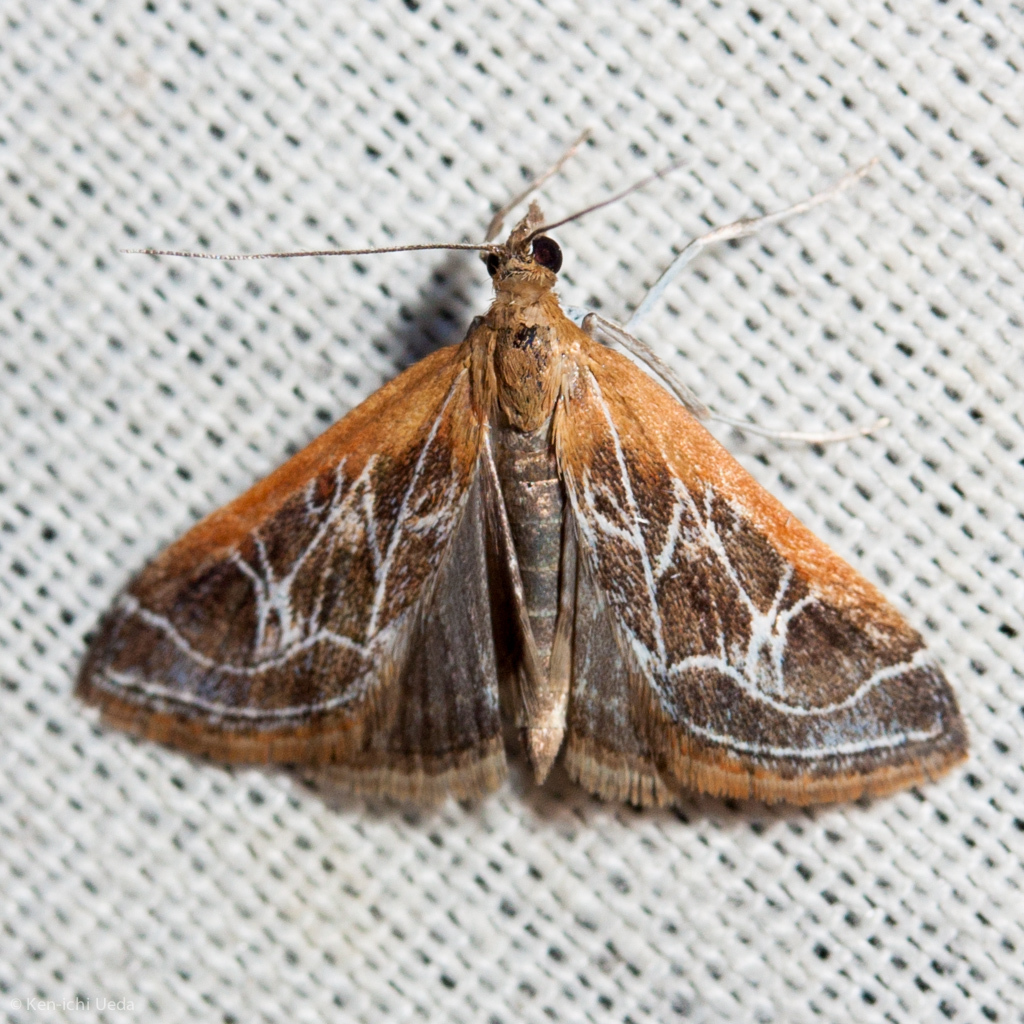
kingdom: Animalia
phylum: Arthropoda
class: Insecta
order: Lepidoptera
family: Crambidae
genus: Pyrausta
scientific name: Pyrausta nexalis
